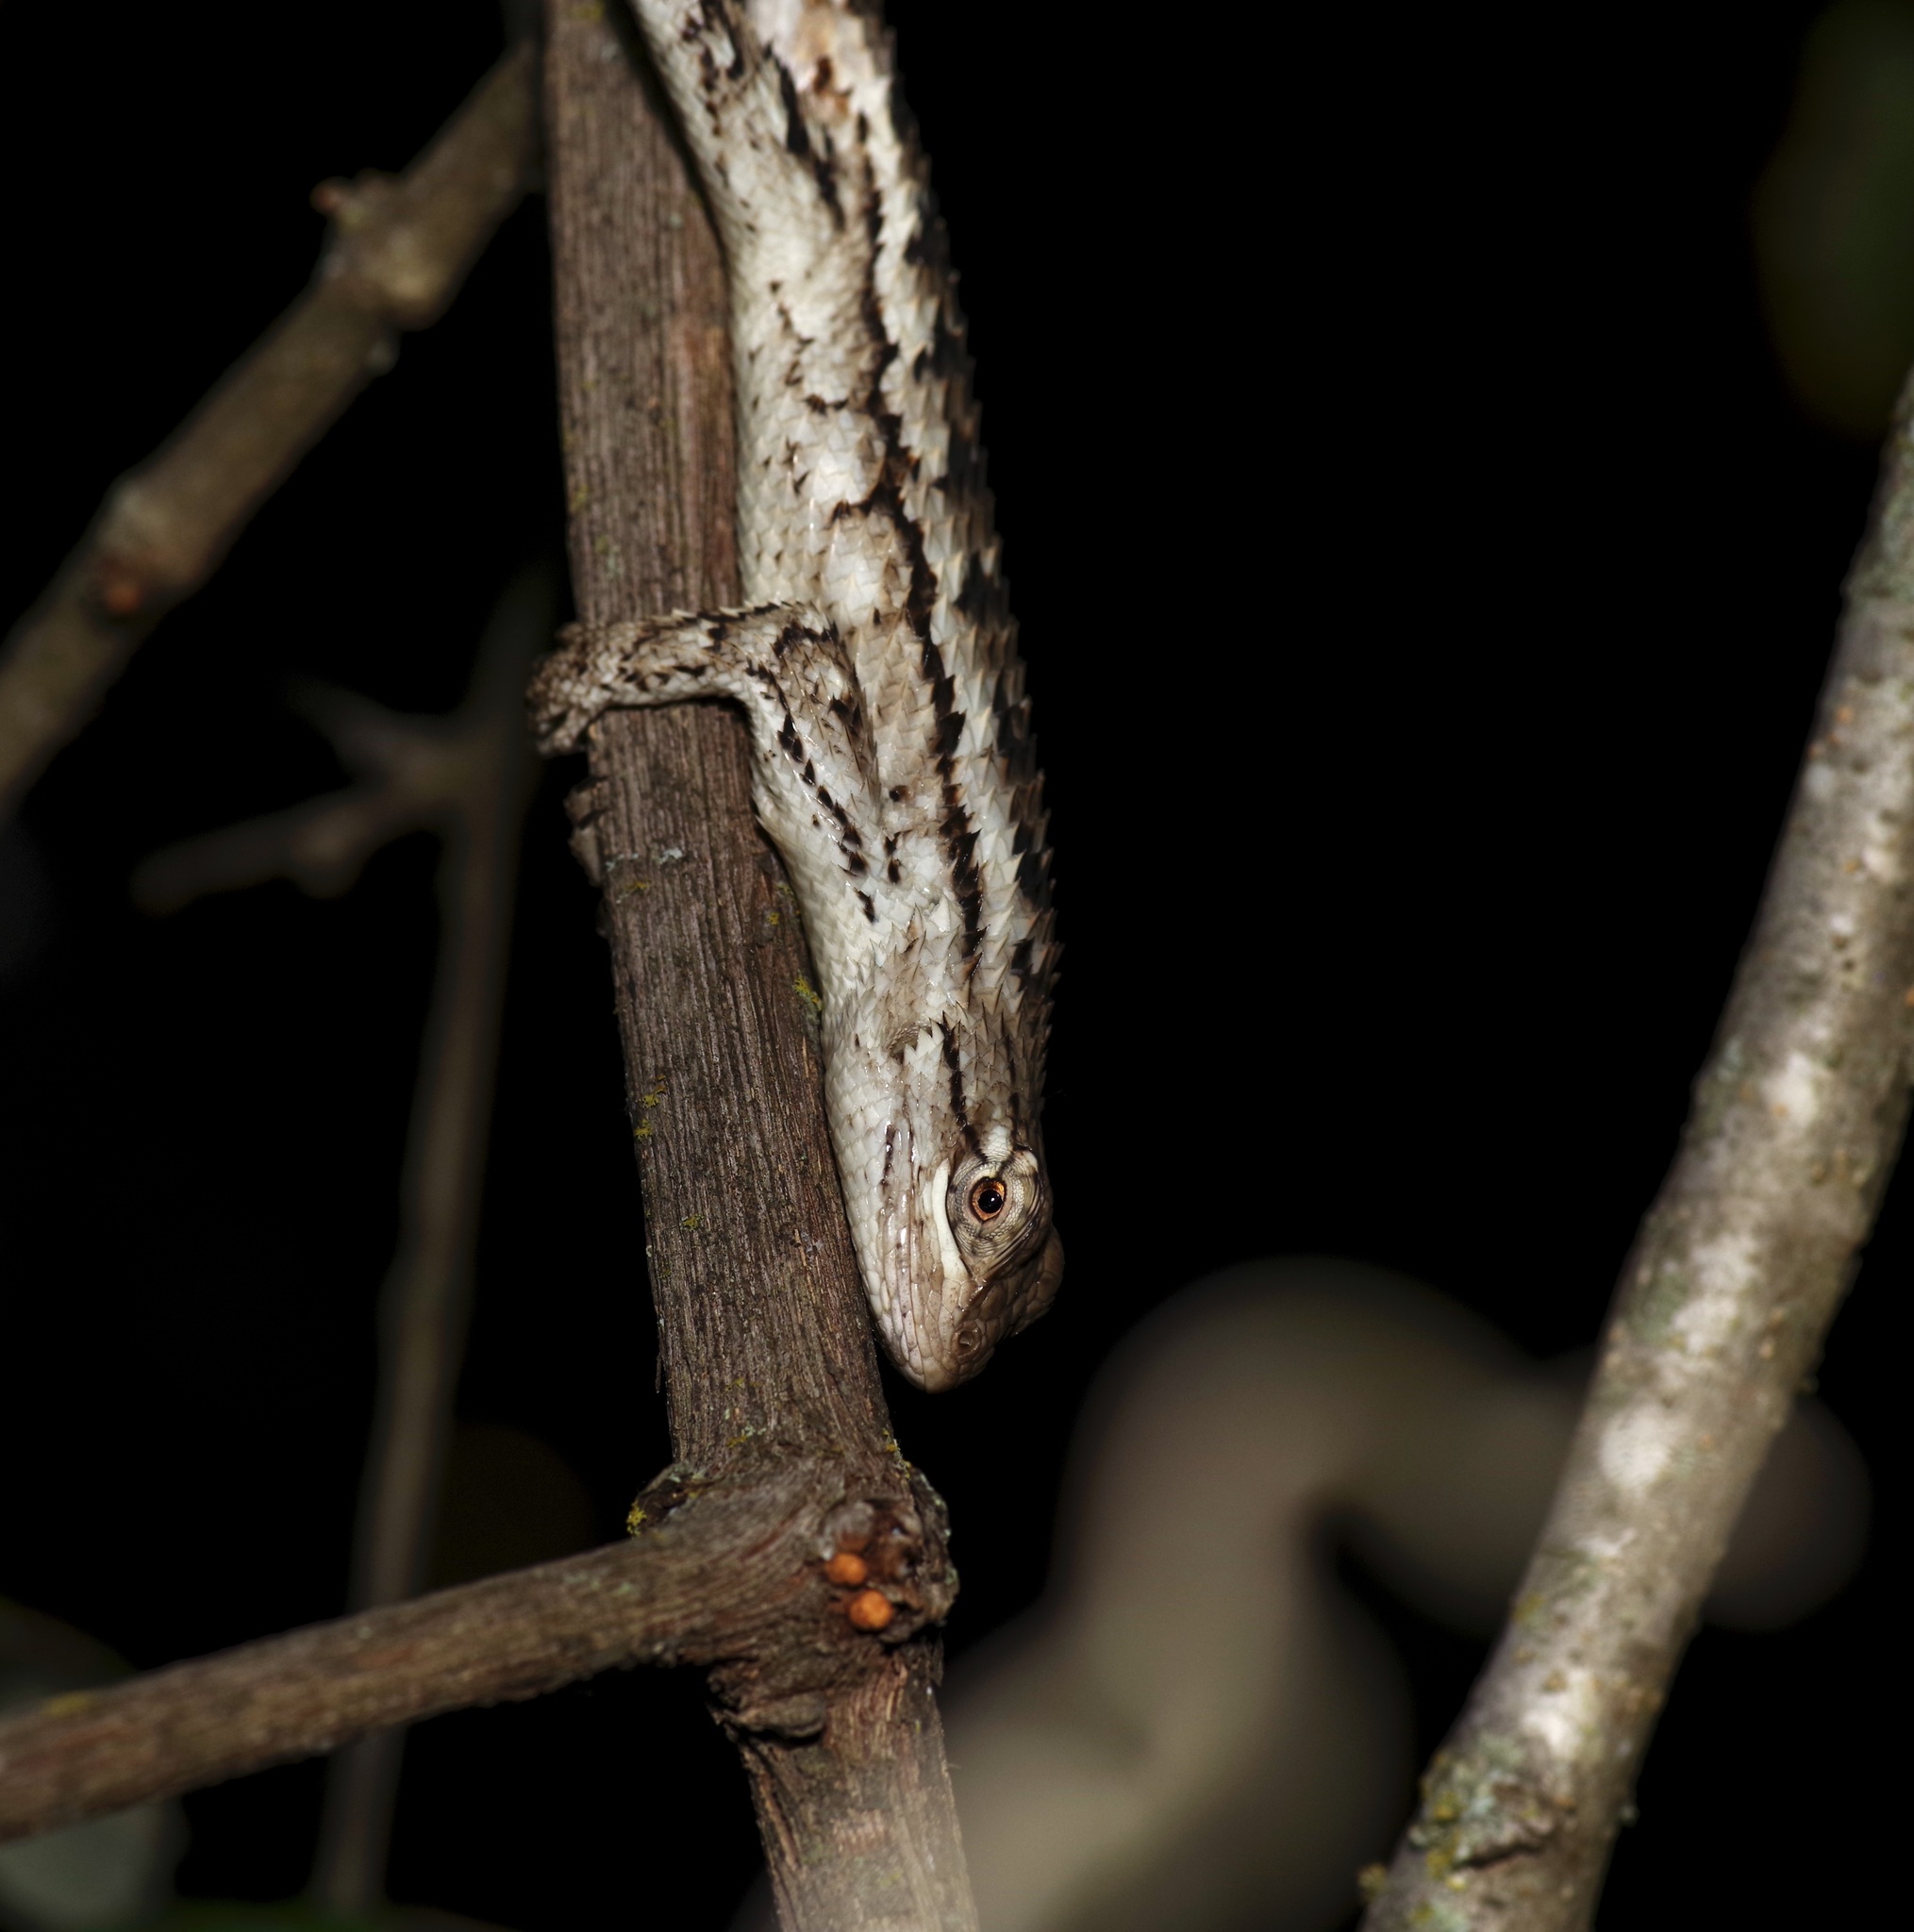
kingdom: Animalia
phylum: Chordata
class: Squamata
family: Phrynosomatidae
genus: Sceloporus
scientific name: Sceloporus olivaceus
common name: Texas spiny lizard
